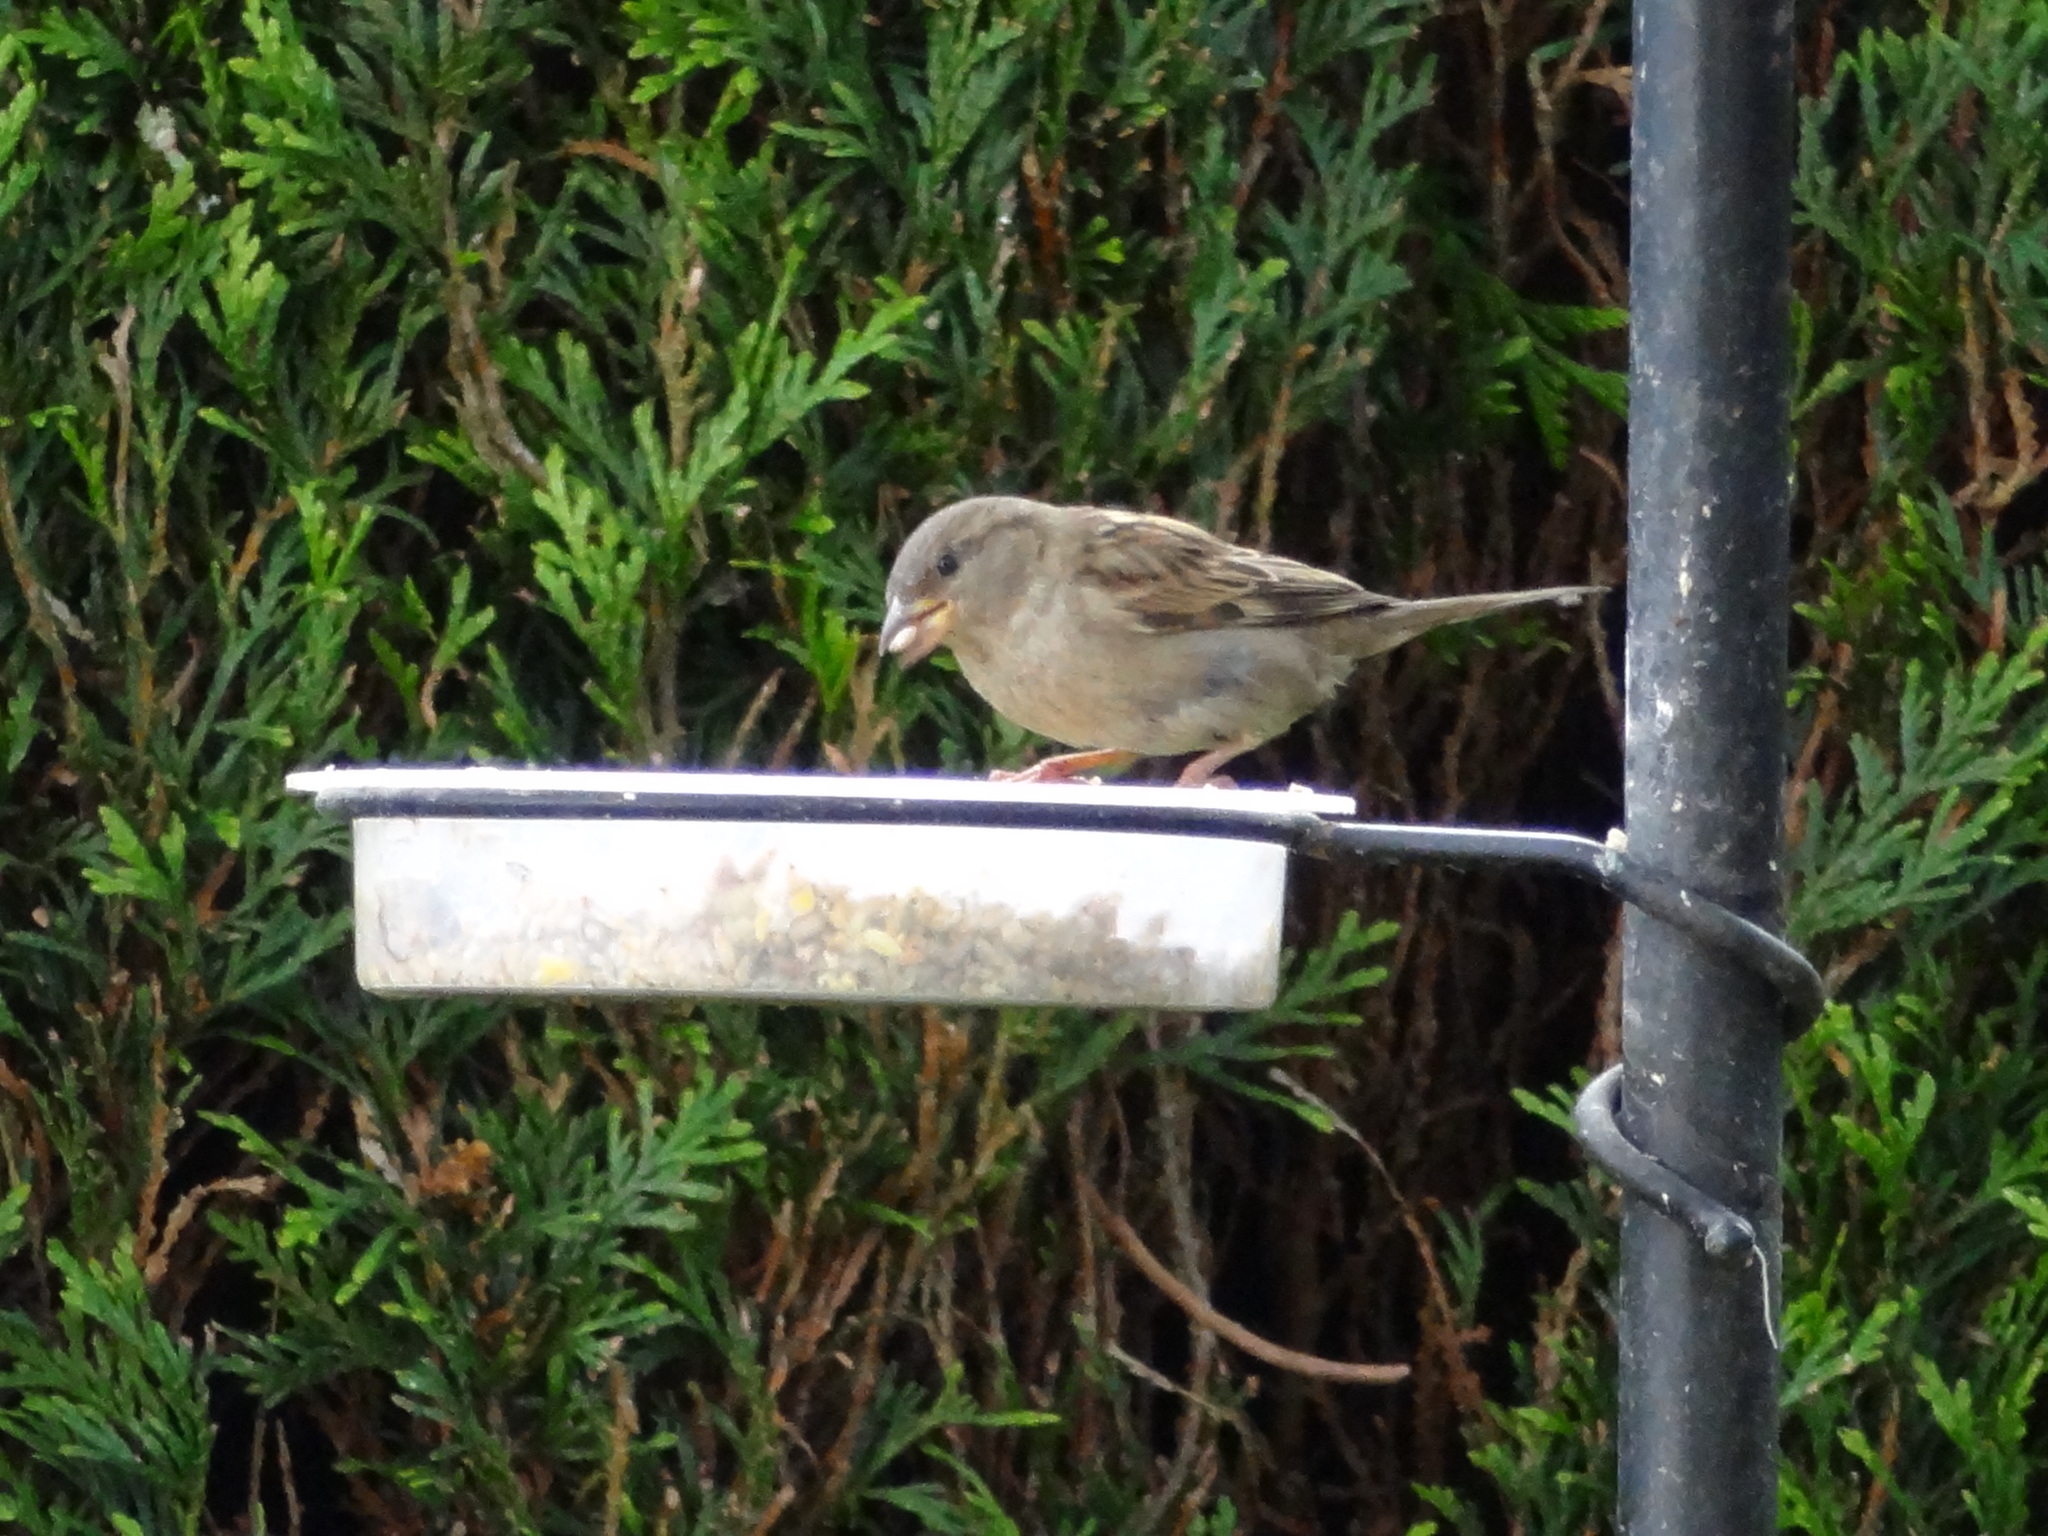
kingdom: Animalia
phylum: Chordata
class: Aves
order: Passeriformes
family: Passeridae
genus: Passer
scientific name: Passer domesticus
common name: House sparrow
